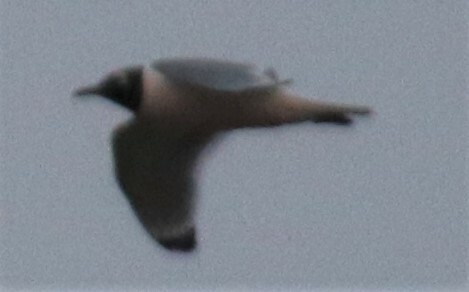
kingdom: Animalia
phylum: Chordata
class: Aves
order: Charadriiformes
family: Laridae
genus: Leucophaeus
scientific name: Leucophaeus pipixcan
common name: Franklin's gull
